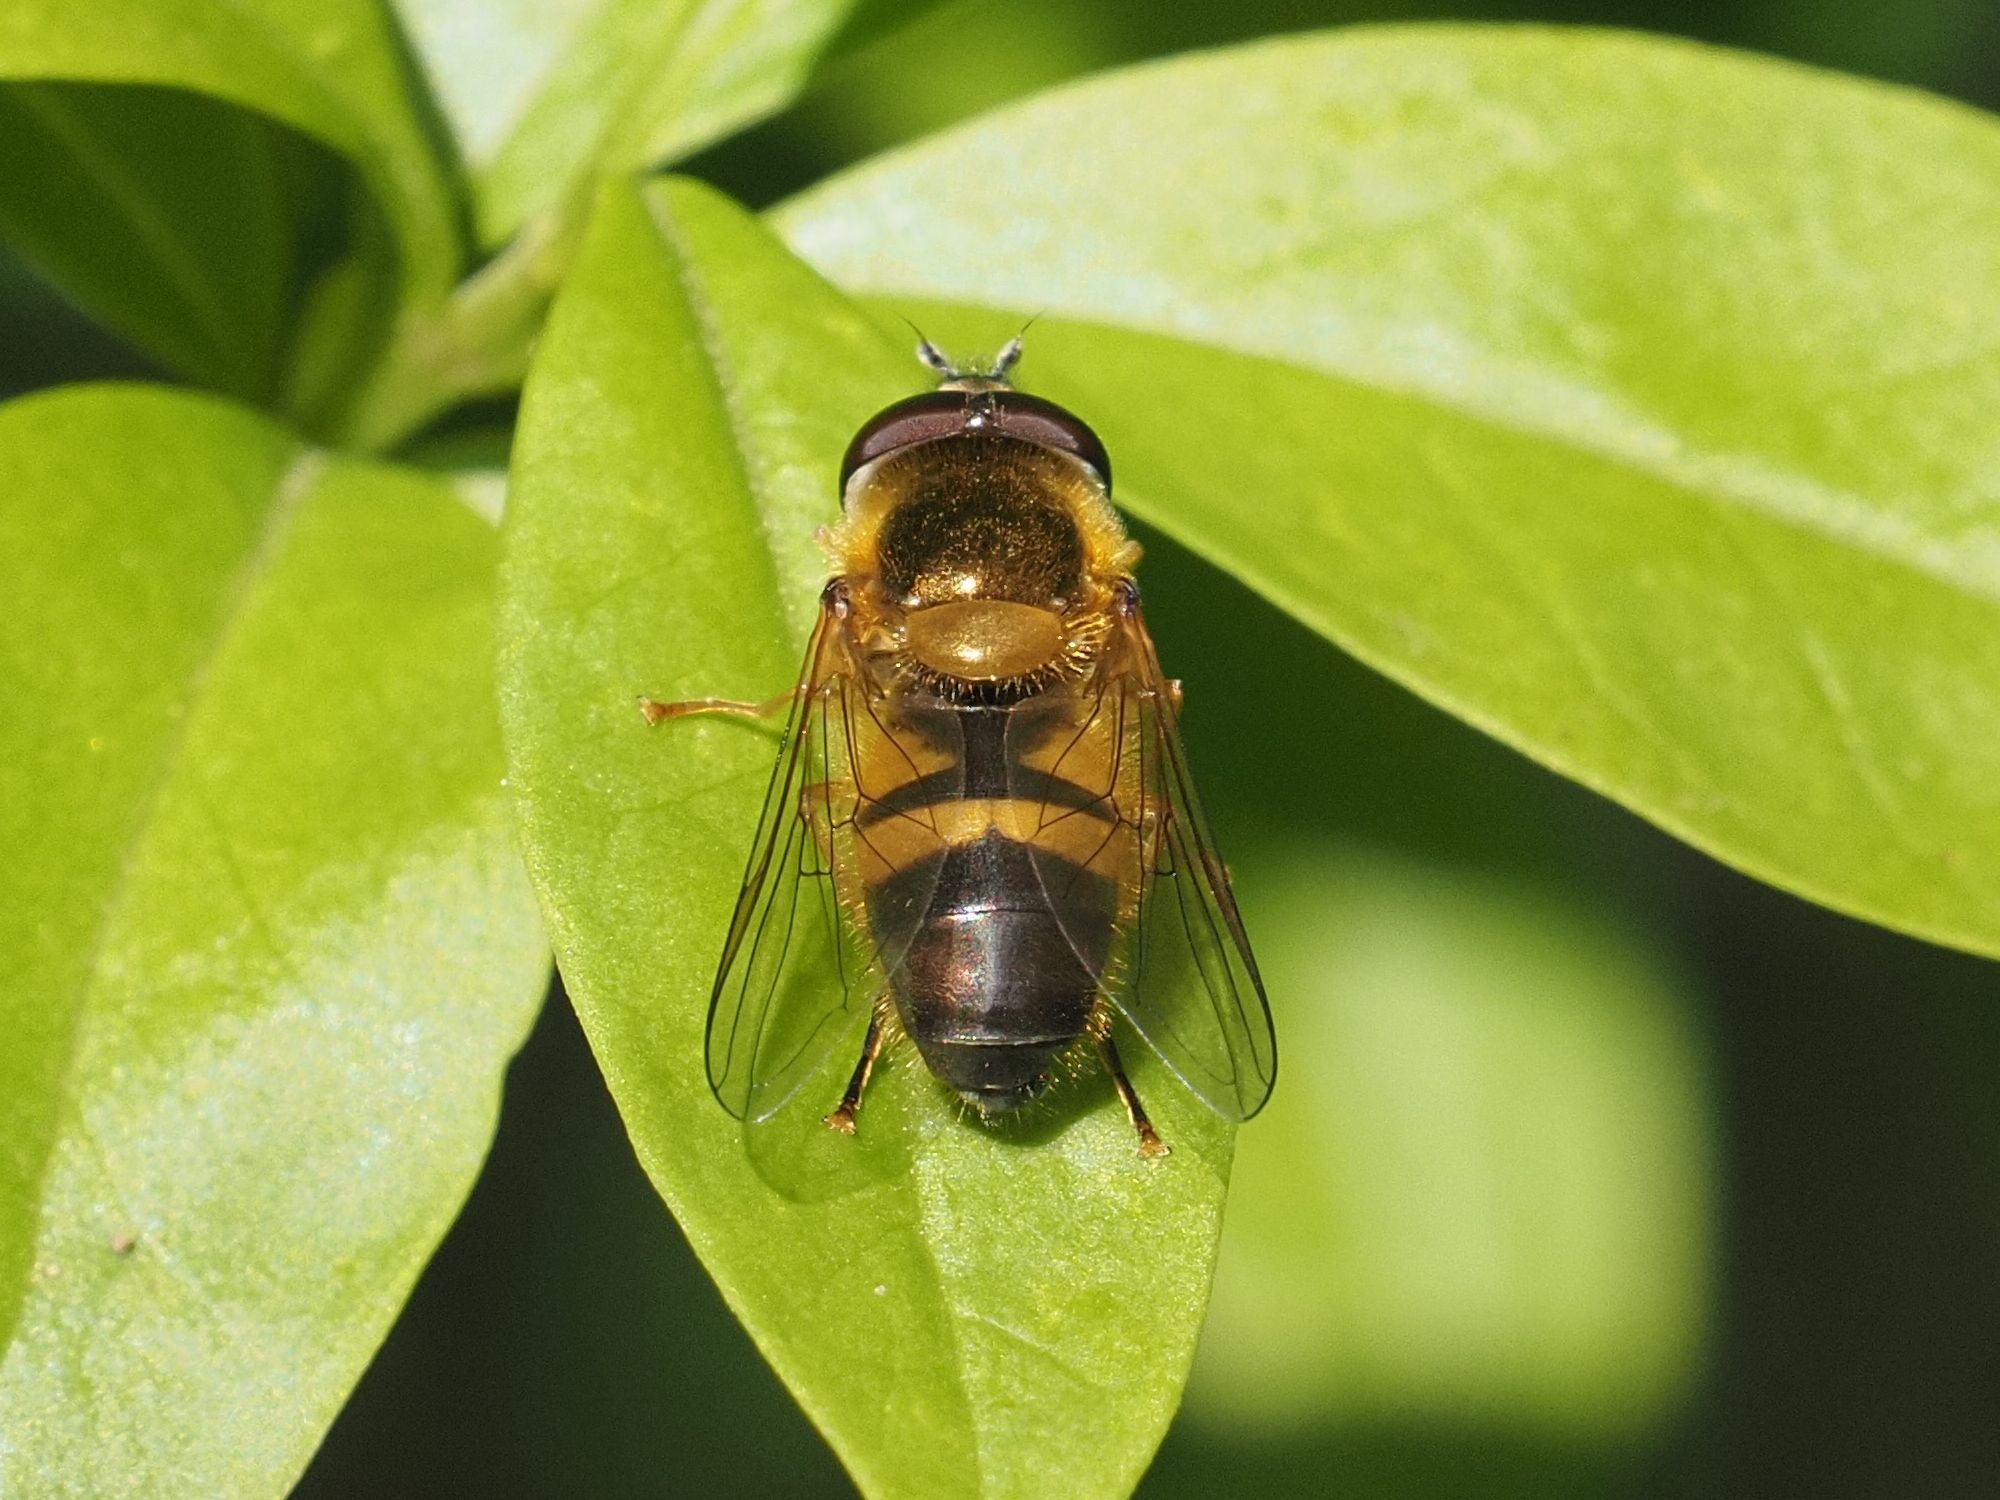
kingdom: Animalia
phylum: Arthropoda
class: Insecta
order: Diptera
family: Syrphidae
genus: Epistrophe
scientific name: Epistrophe eligans
